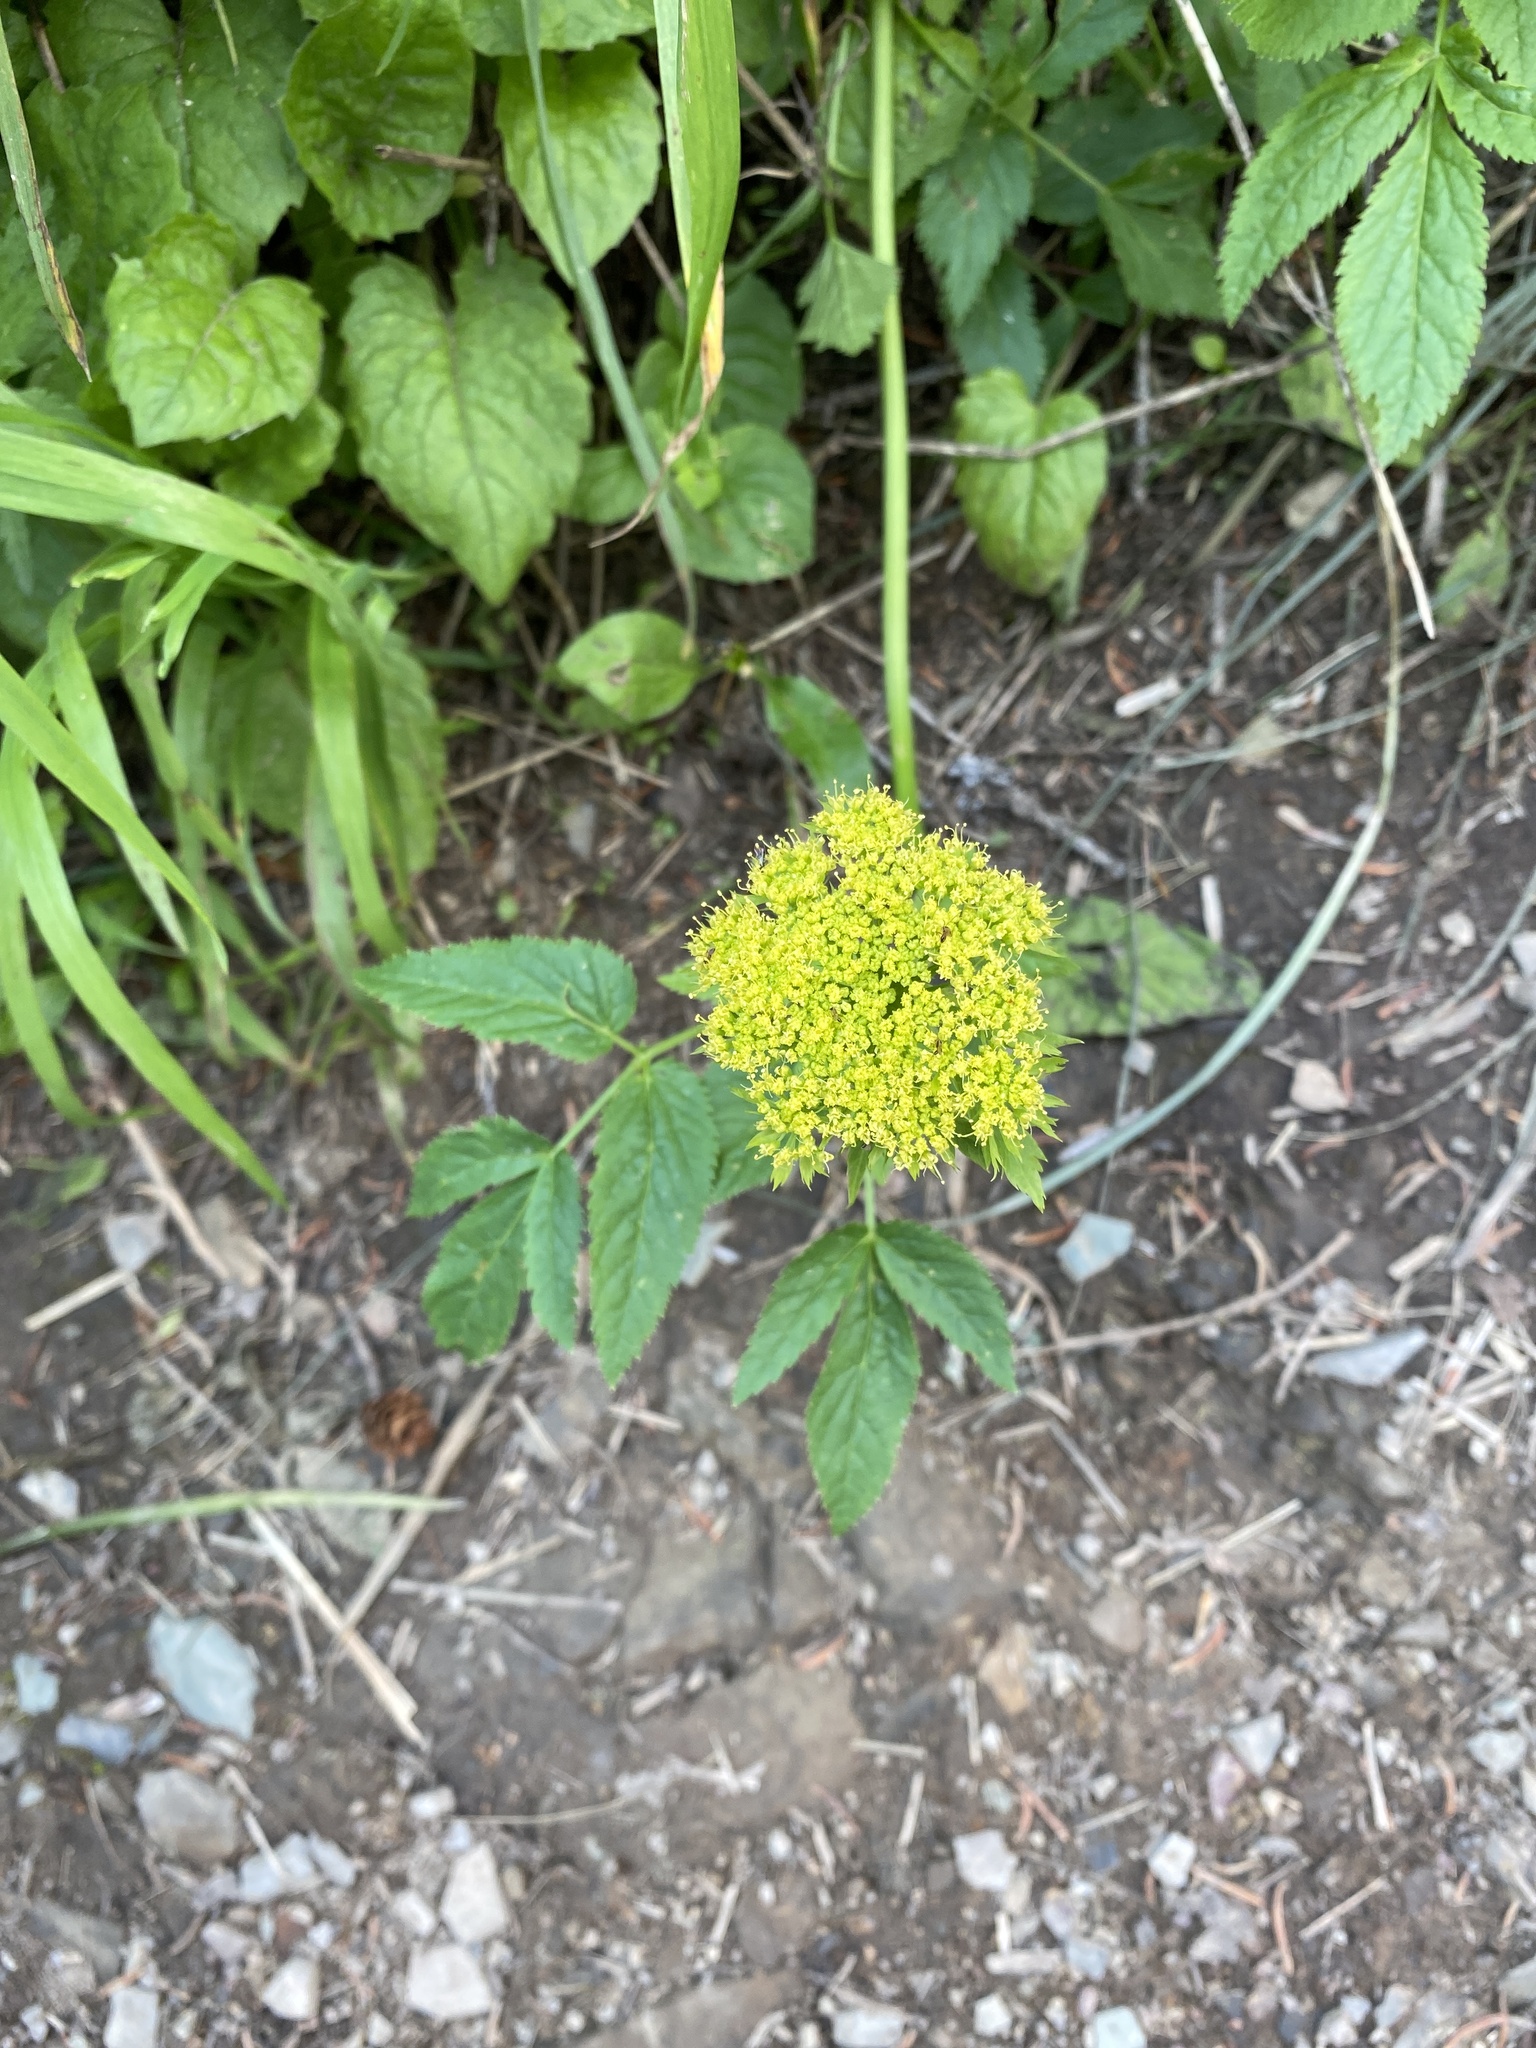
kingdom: Plantae
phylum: Tracheophyta
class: Magnoliopsida
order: Apiales
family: Apiaceae
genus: Angelica
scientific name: Angelica dawsonii
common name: Dawson's angelica
